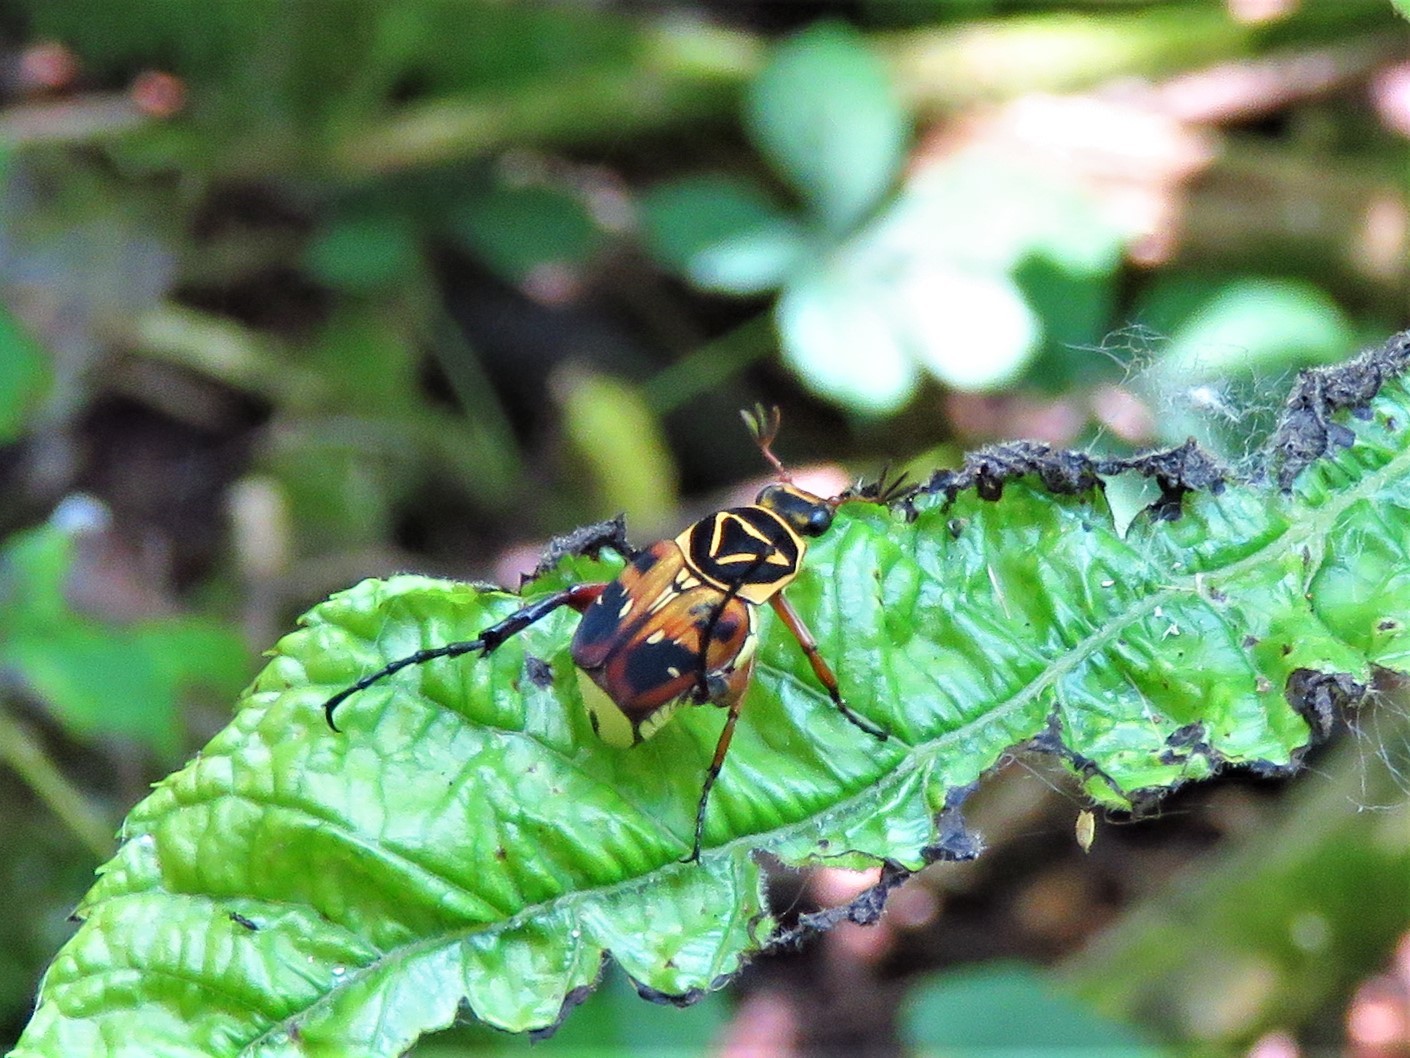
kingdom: Animalia
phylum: Arthropoda
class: Insecta
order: Coleoptera
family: Scarabaeidae
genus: Trigonopeltastes
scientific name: Trigonopeltastes delta
